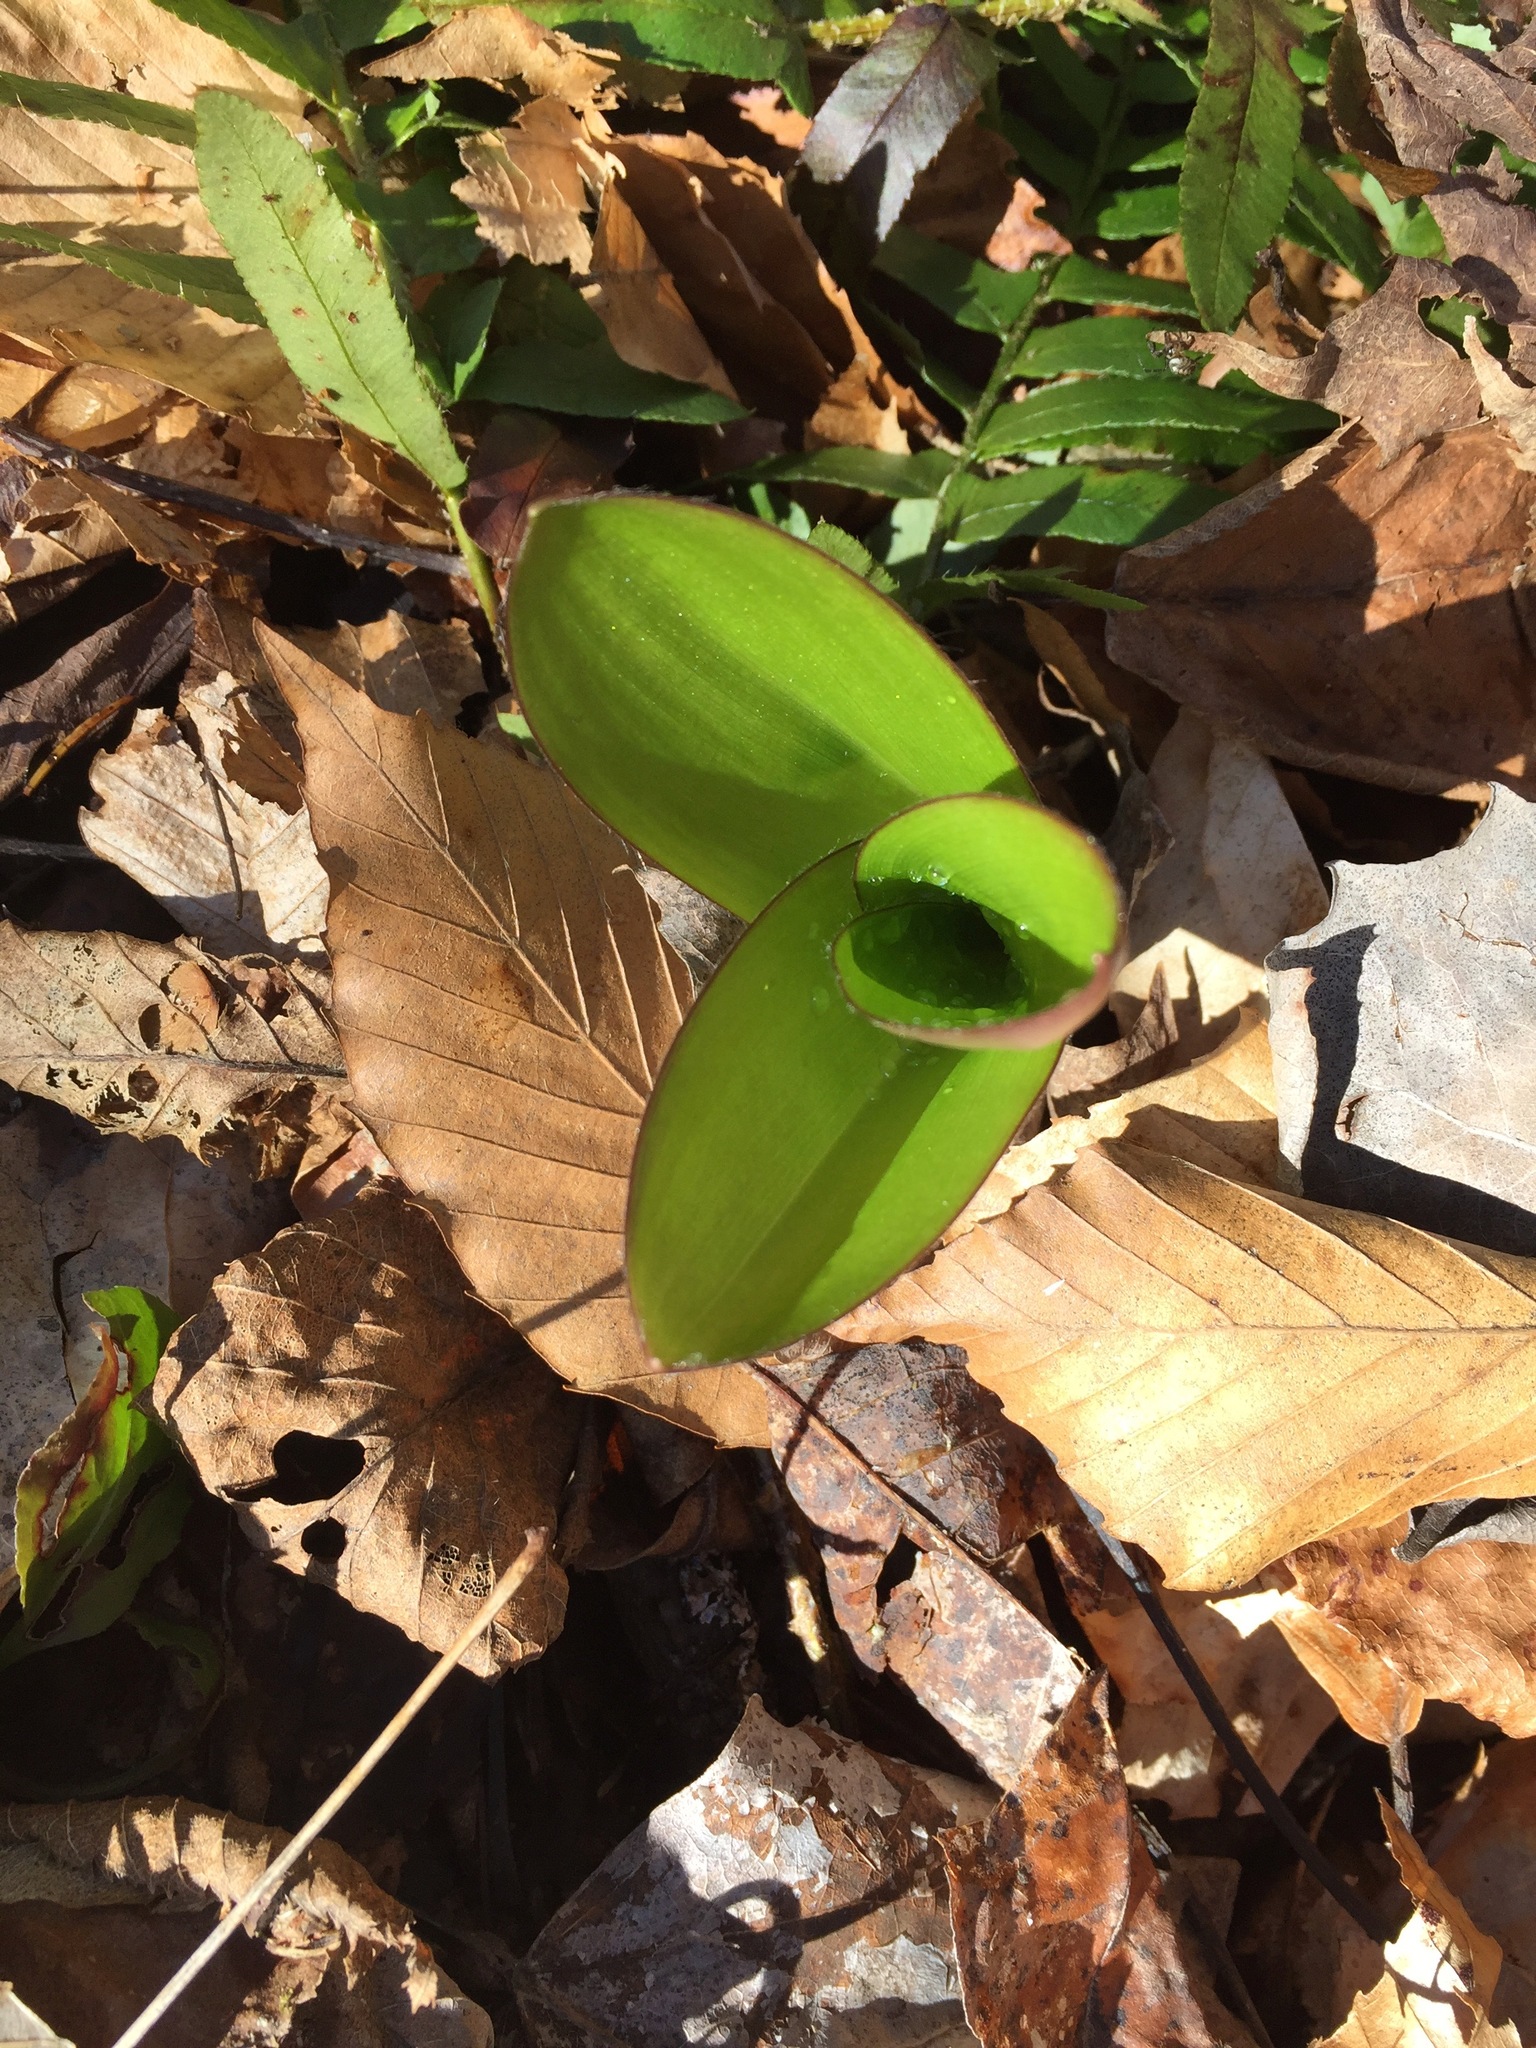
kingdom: Plantae
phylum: Tracheophyta
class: Liliopsida
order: Liliales
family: Liliaceae
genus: Clintonia
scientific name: Clintonia borealis
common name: Yellow clintonia
